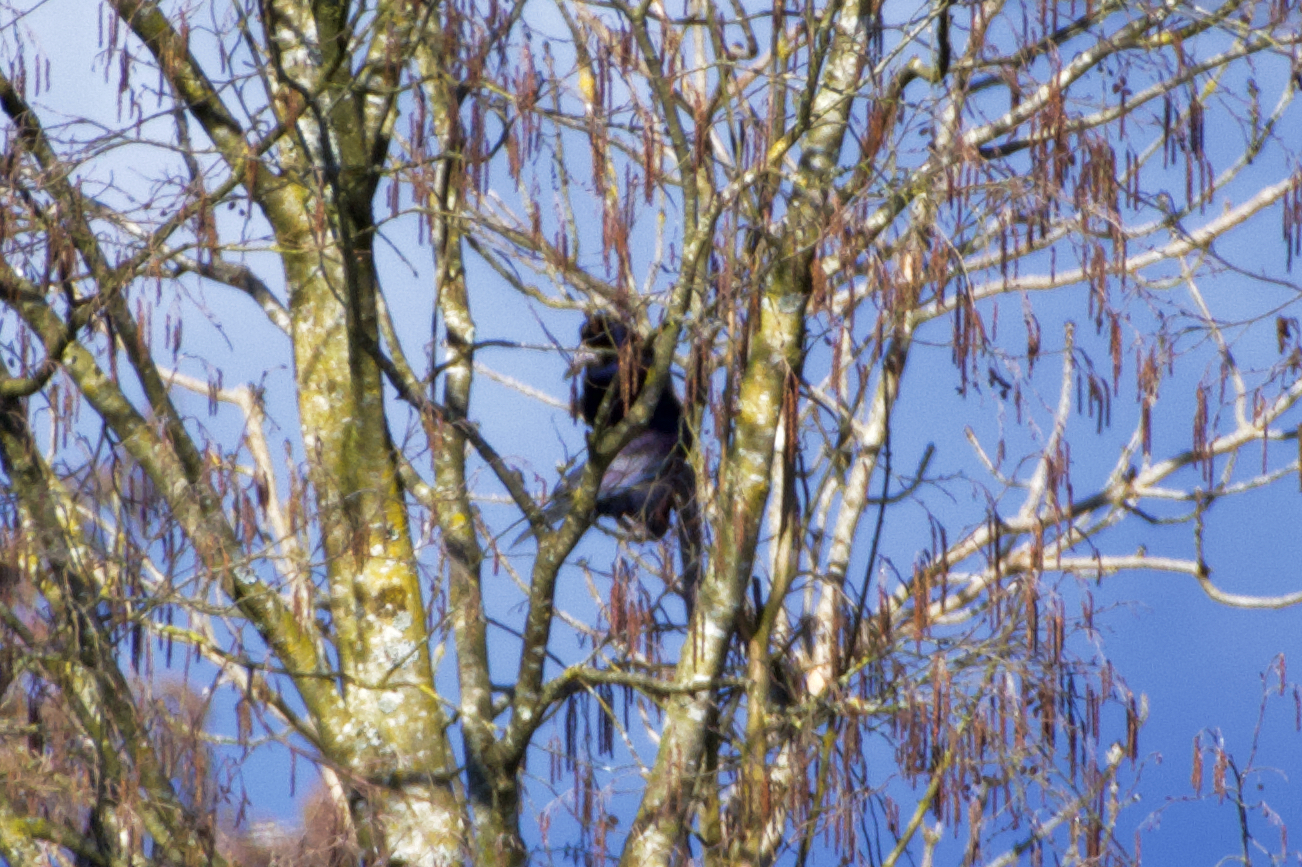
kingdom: Animalia
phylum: Chordata
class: Aves
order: Passeriformes
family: Corvidae
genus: Corvus
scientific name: Corvus frugilegus
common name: Rook
